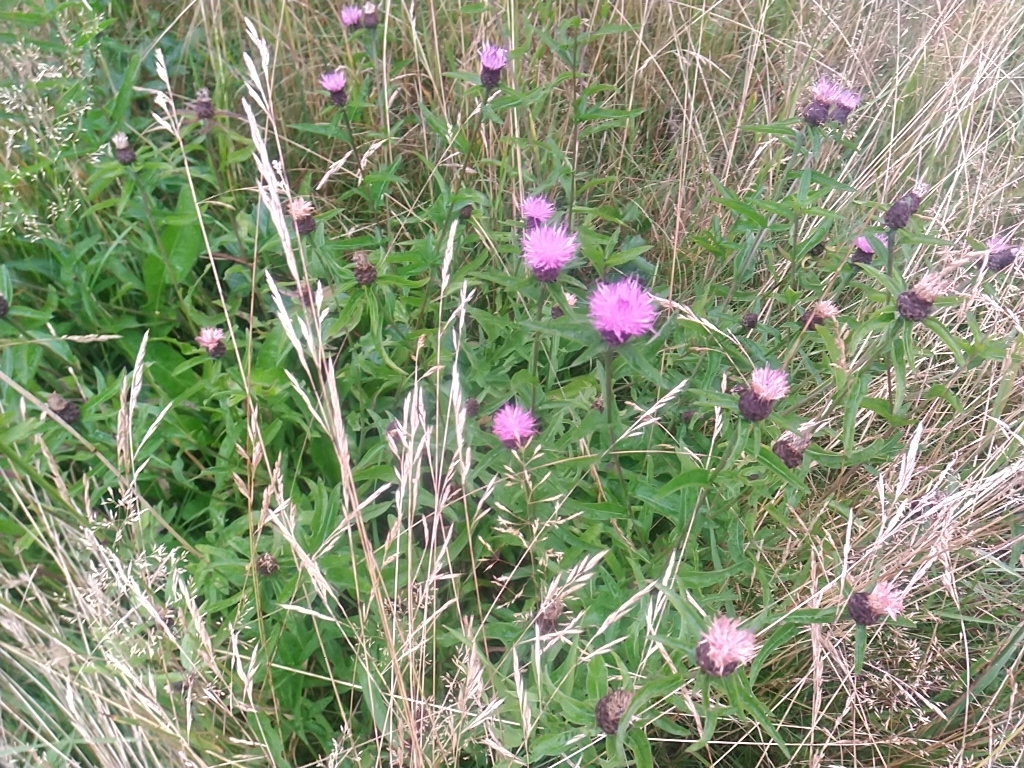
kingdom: Plantae
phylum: Tracheophyta
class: Magnoliopsida
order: Asterales
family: Asteraceae
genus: Centaurea
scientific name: Centaurea nigra
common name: Lesser knapweed
